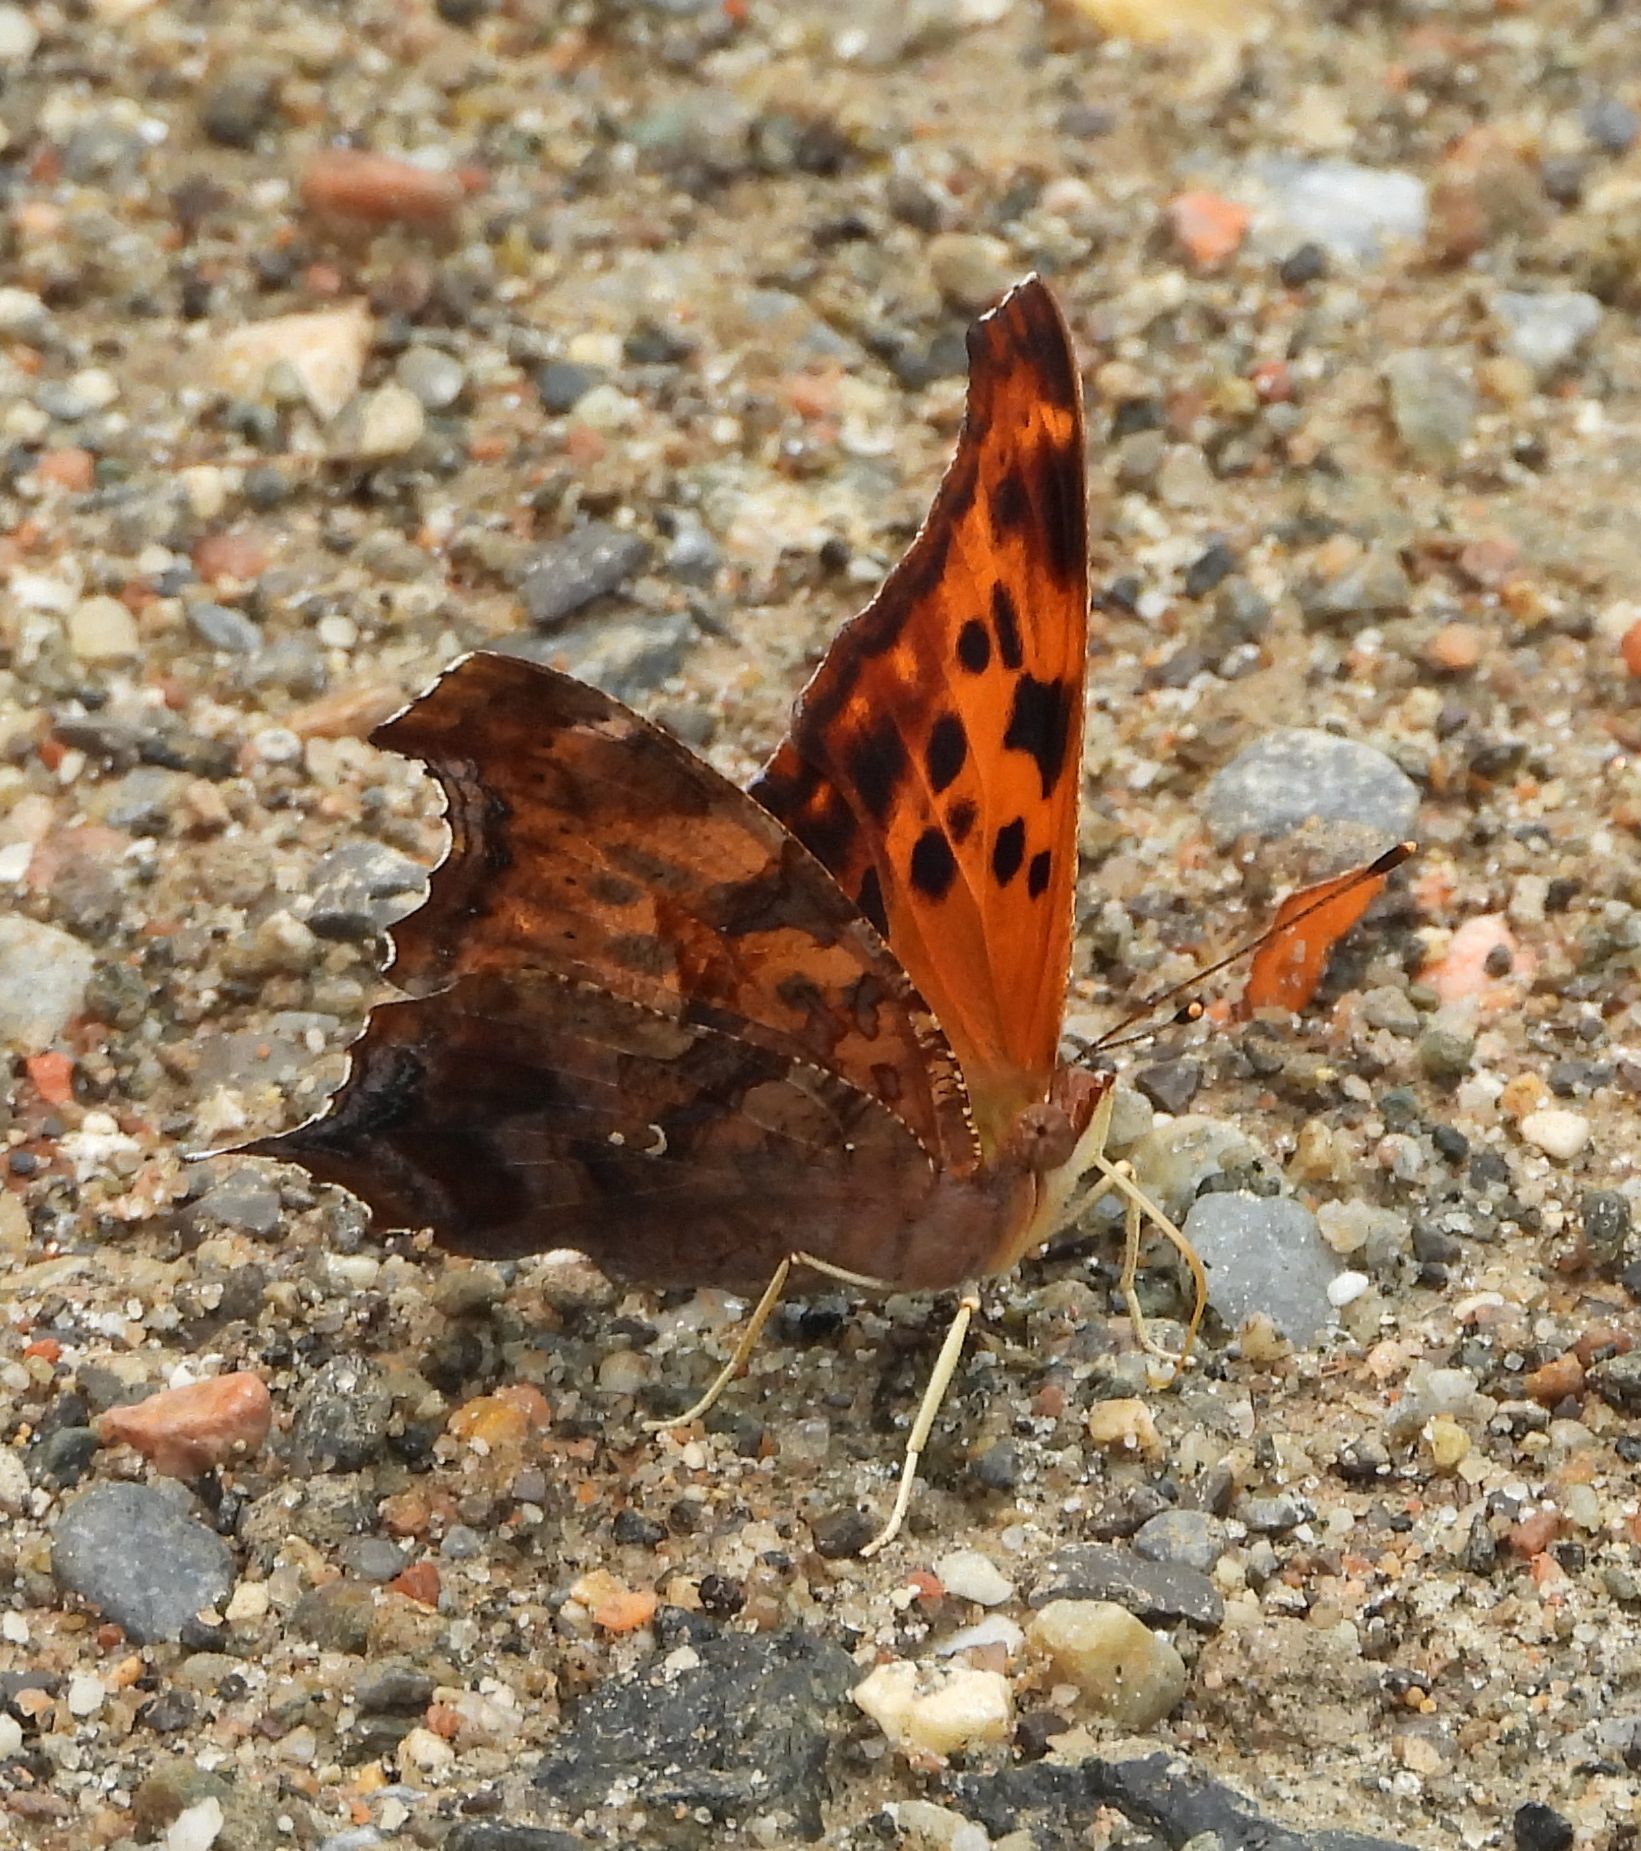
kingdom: Animalia
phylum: Arthropoda
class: Insecta
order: Lepidoptera
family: Nymphalidae
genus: Polygonia
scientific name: Polygonia interrogationis
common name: Question mark
